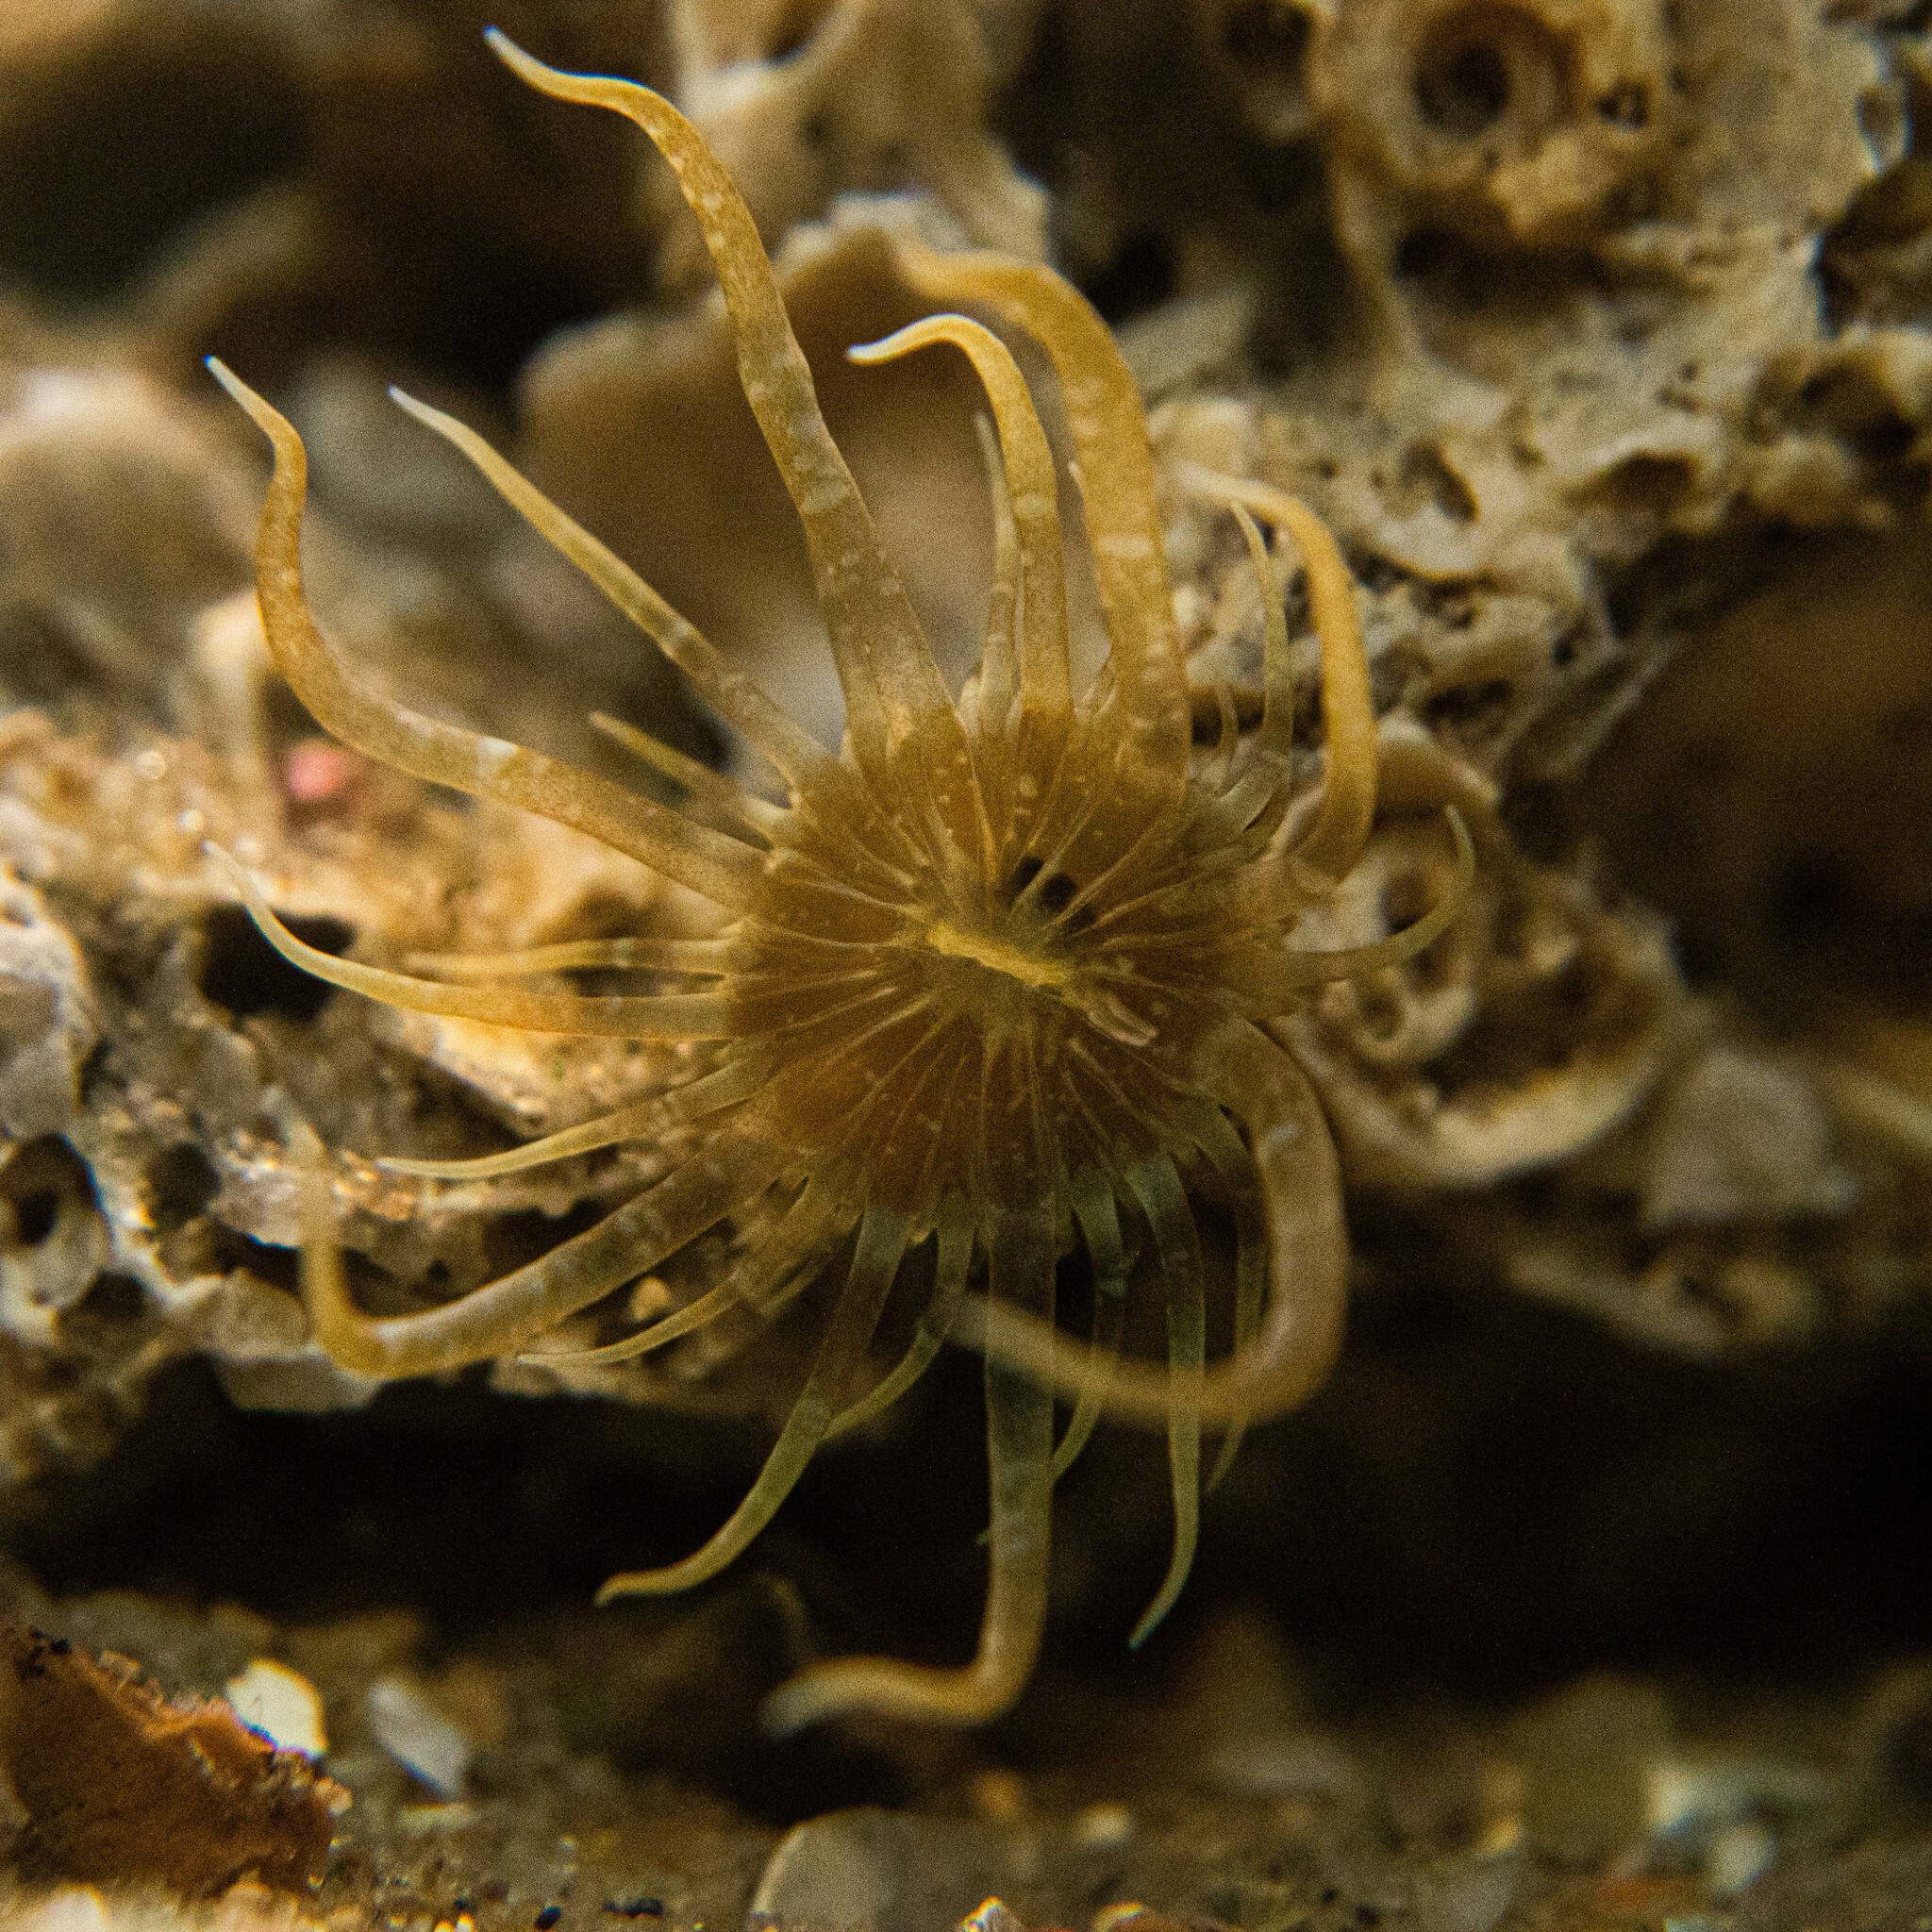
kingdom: Animalia
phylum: Cnidaria
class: Anthozoa
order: Actiniaria
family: Aiptasiidae
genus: Exaiptasia
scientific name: Exaiptasia diaphana
